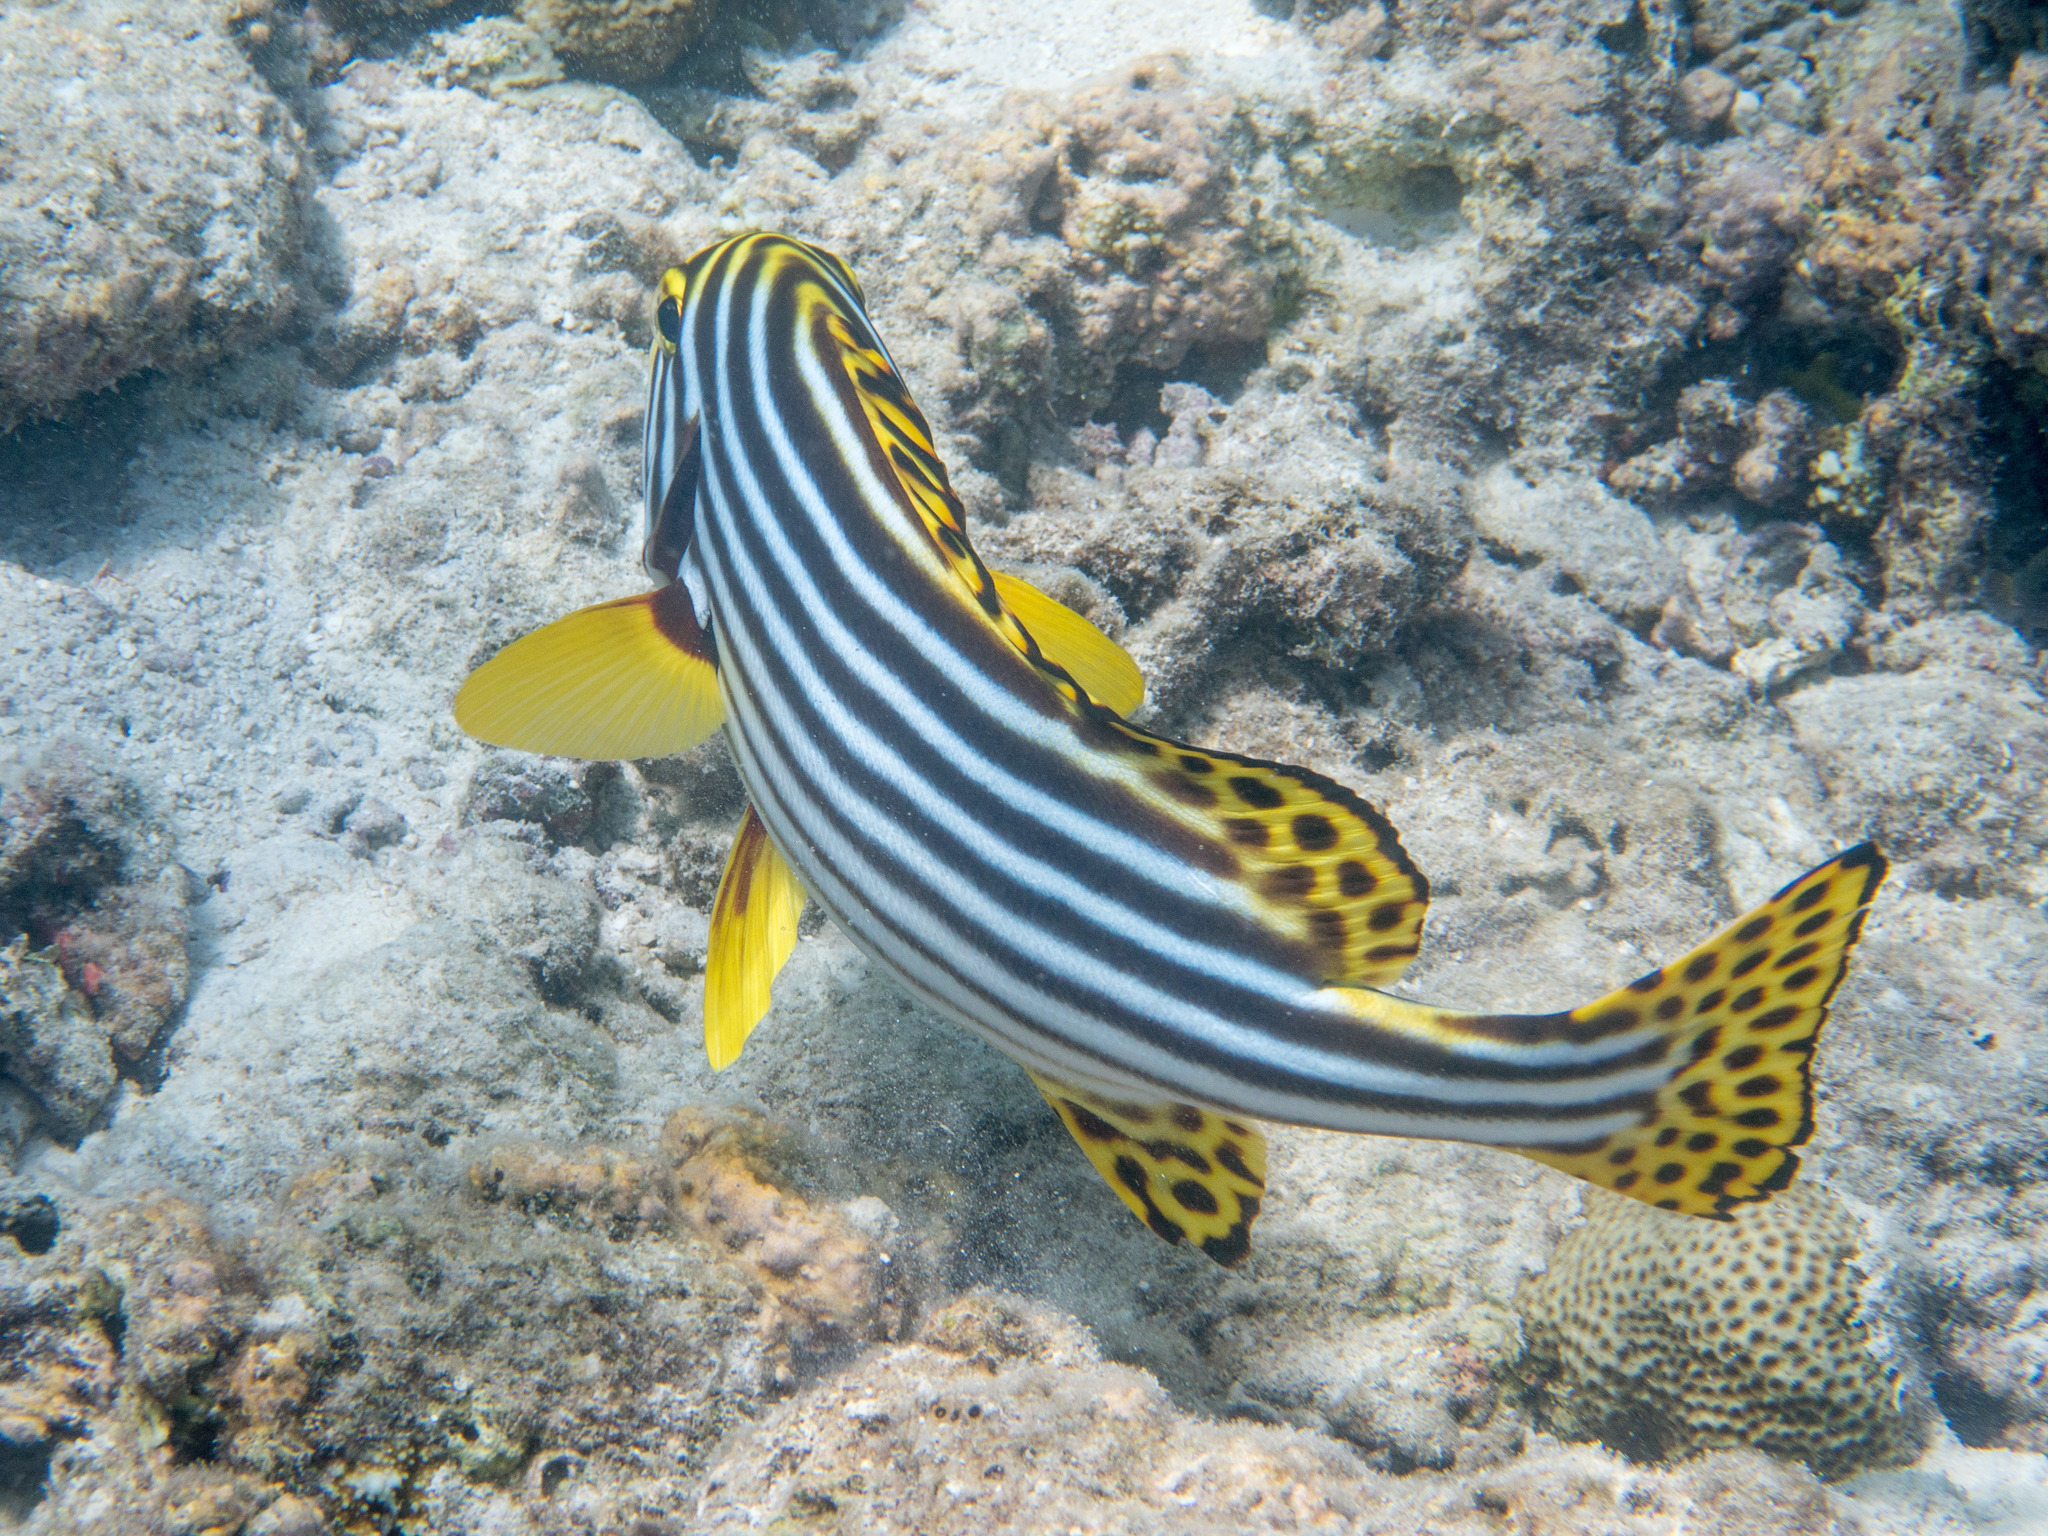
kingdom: Animalia
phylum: Chordata
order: Perciformes
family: Haemulidae
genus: Plectorhinchus
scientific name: Plectorhinchus vittatus
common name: Oriental sweetlips
